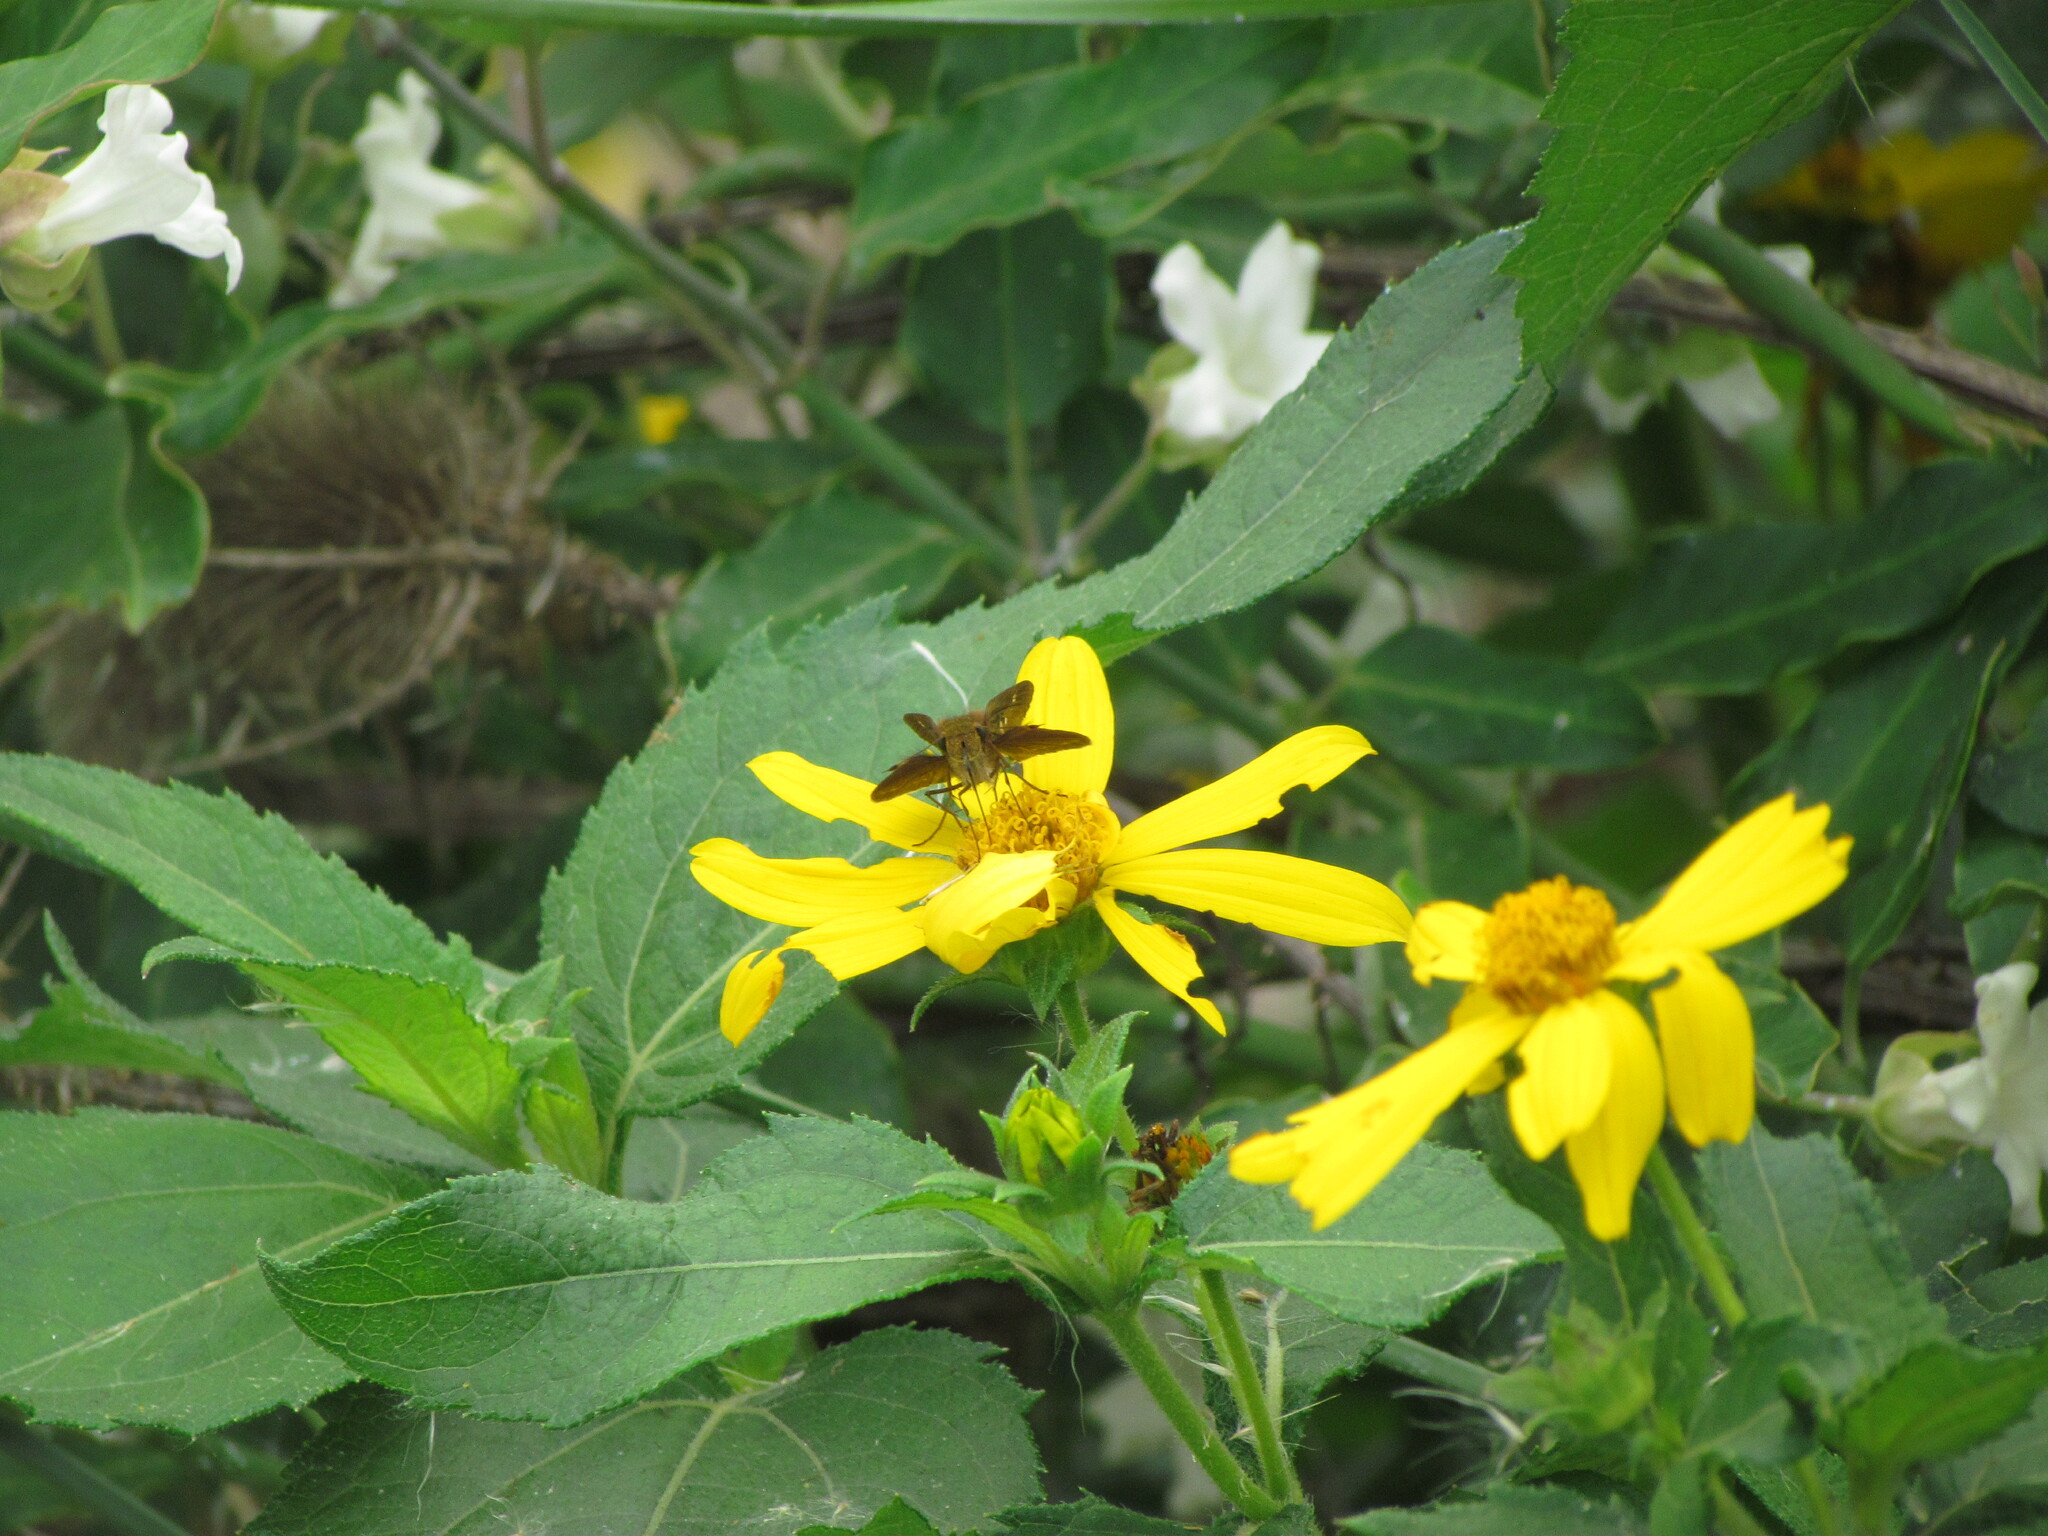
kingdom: Animalia
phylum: Arthropoda
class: Insecta
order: Lepidoptera
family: Hesperiidae
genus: Panoquina
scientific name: Panoquina ocola
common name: Ocola skipper
